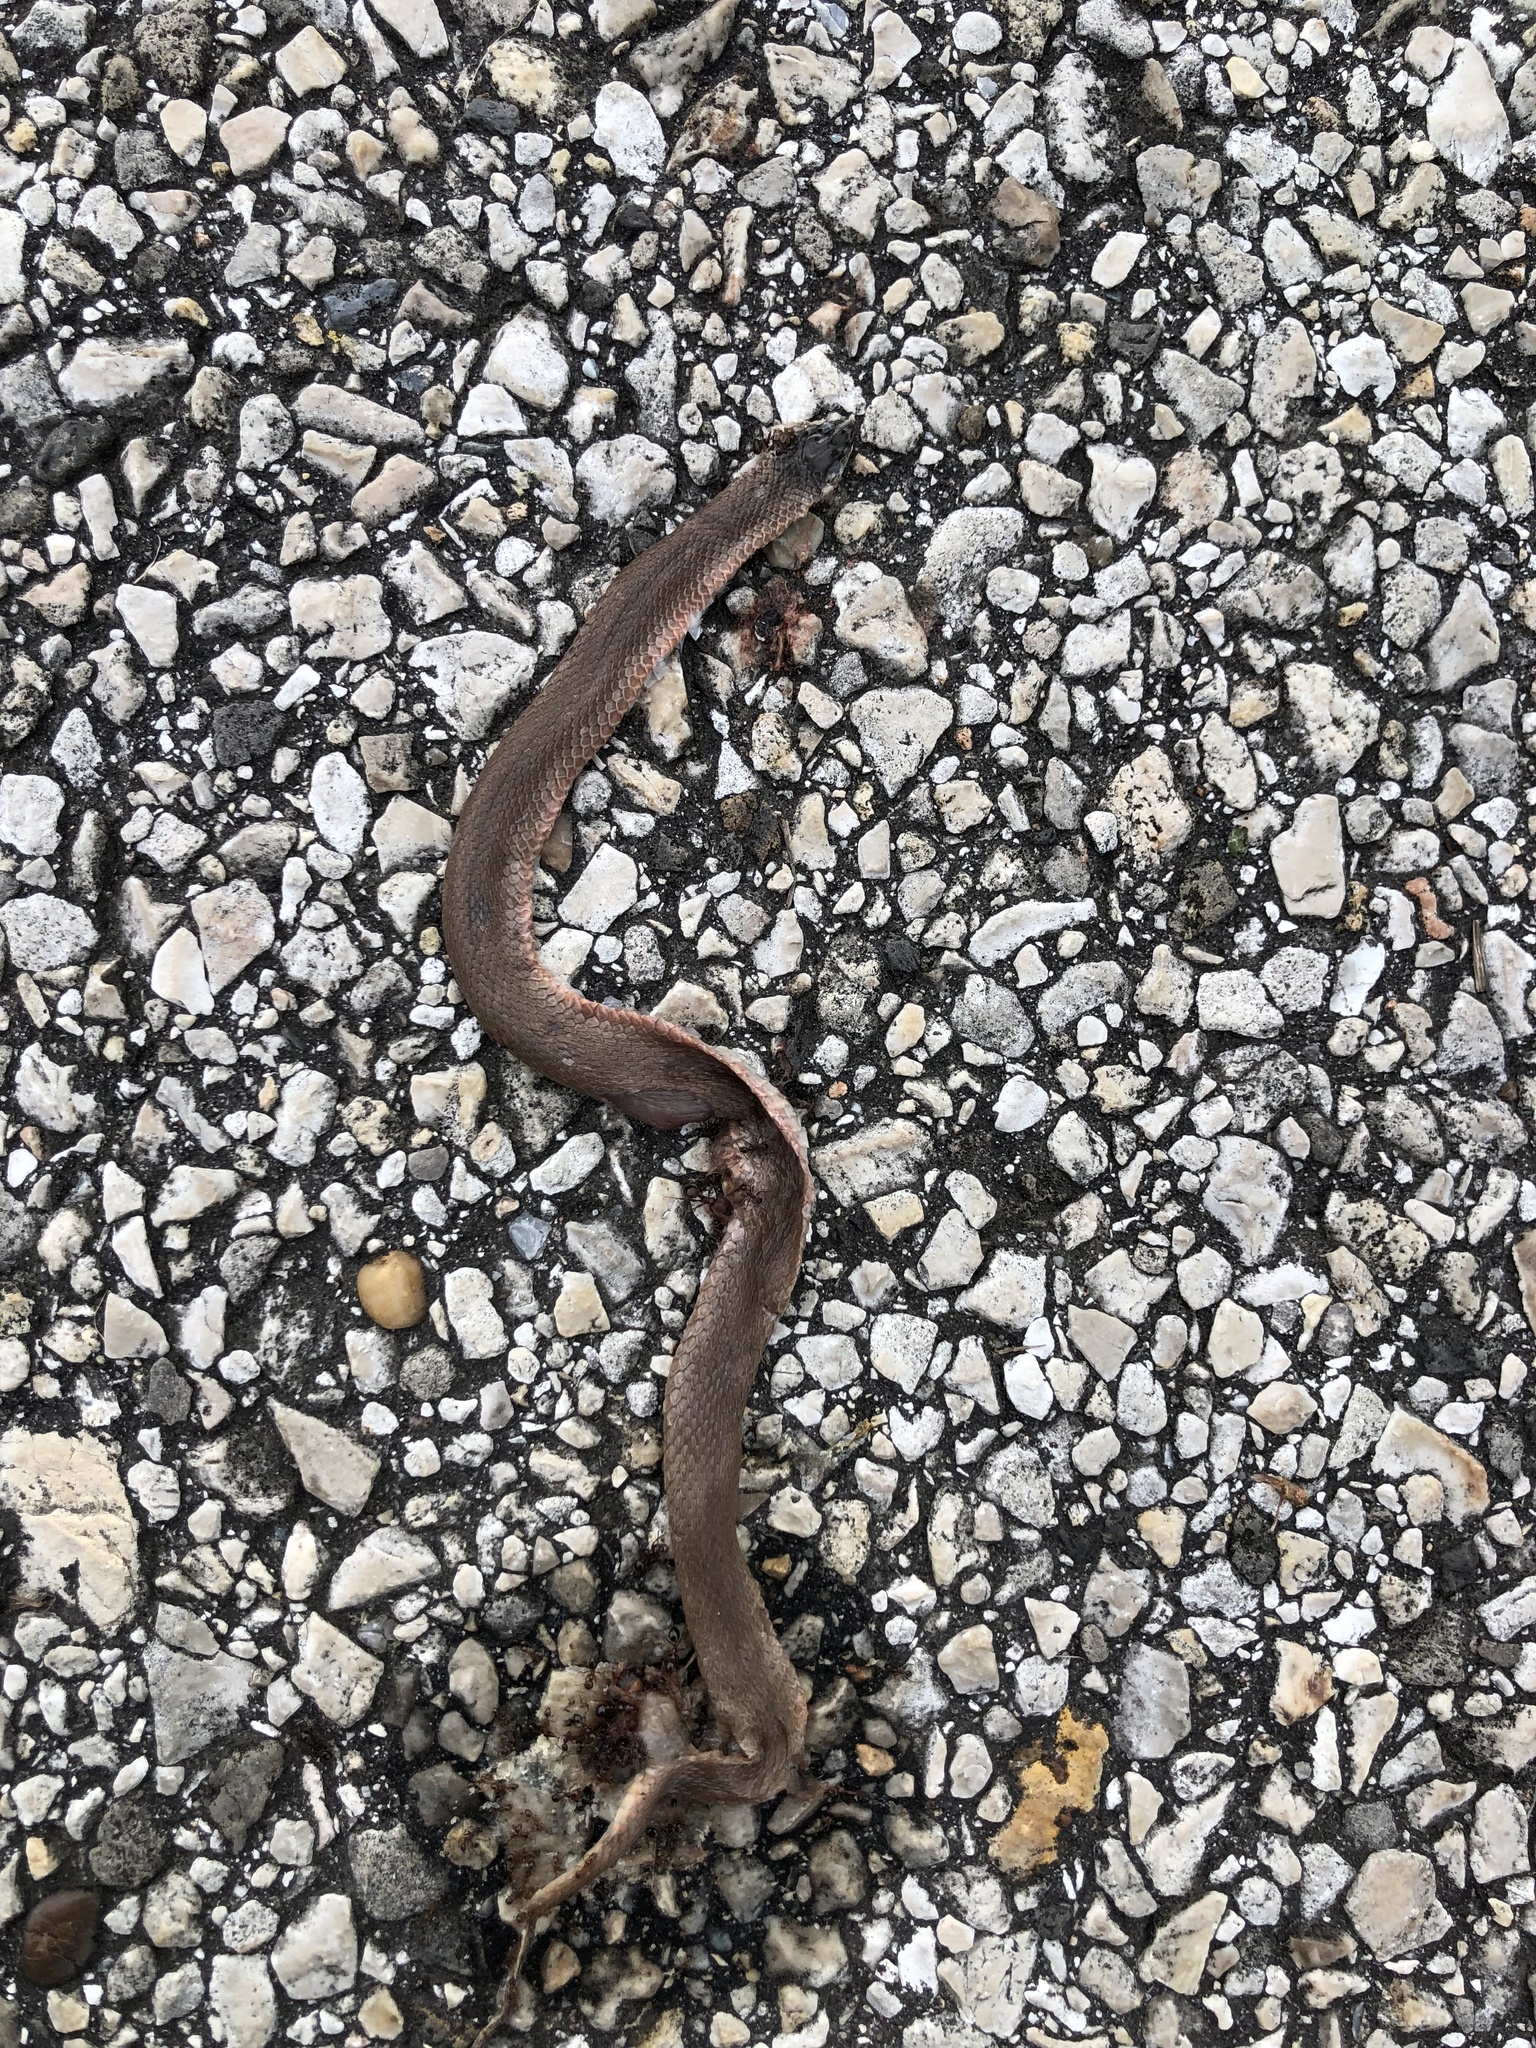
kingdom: Animalia
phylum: Chordata
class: Squamata
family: Colubridae
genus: Haldea
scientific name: Haldea striatula
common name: Rough earth snake
